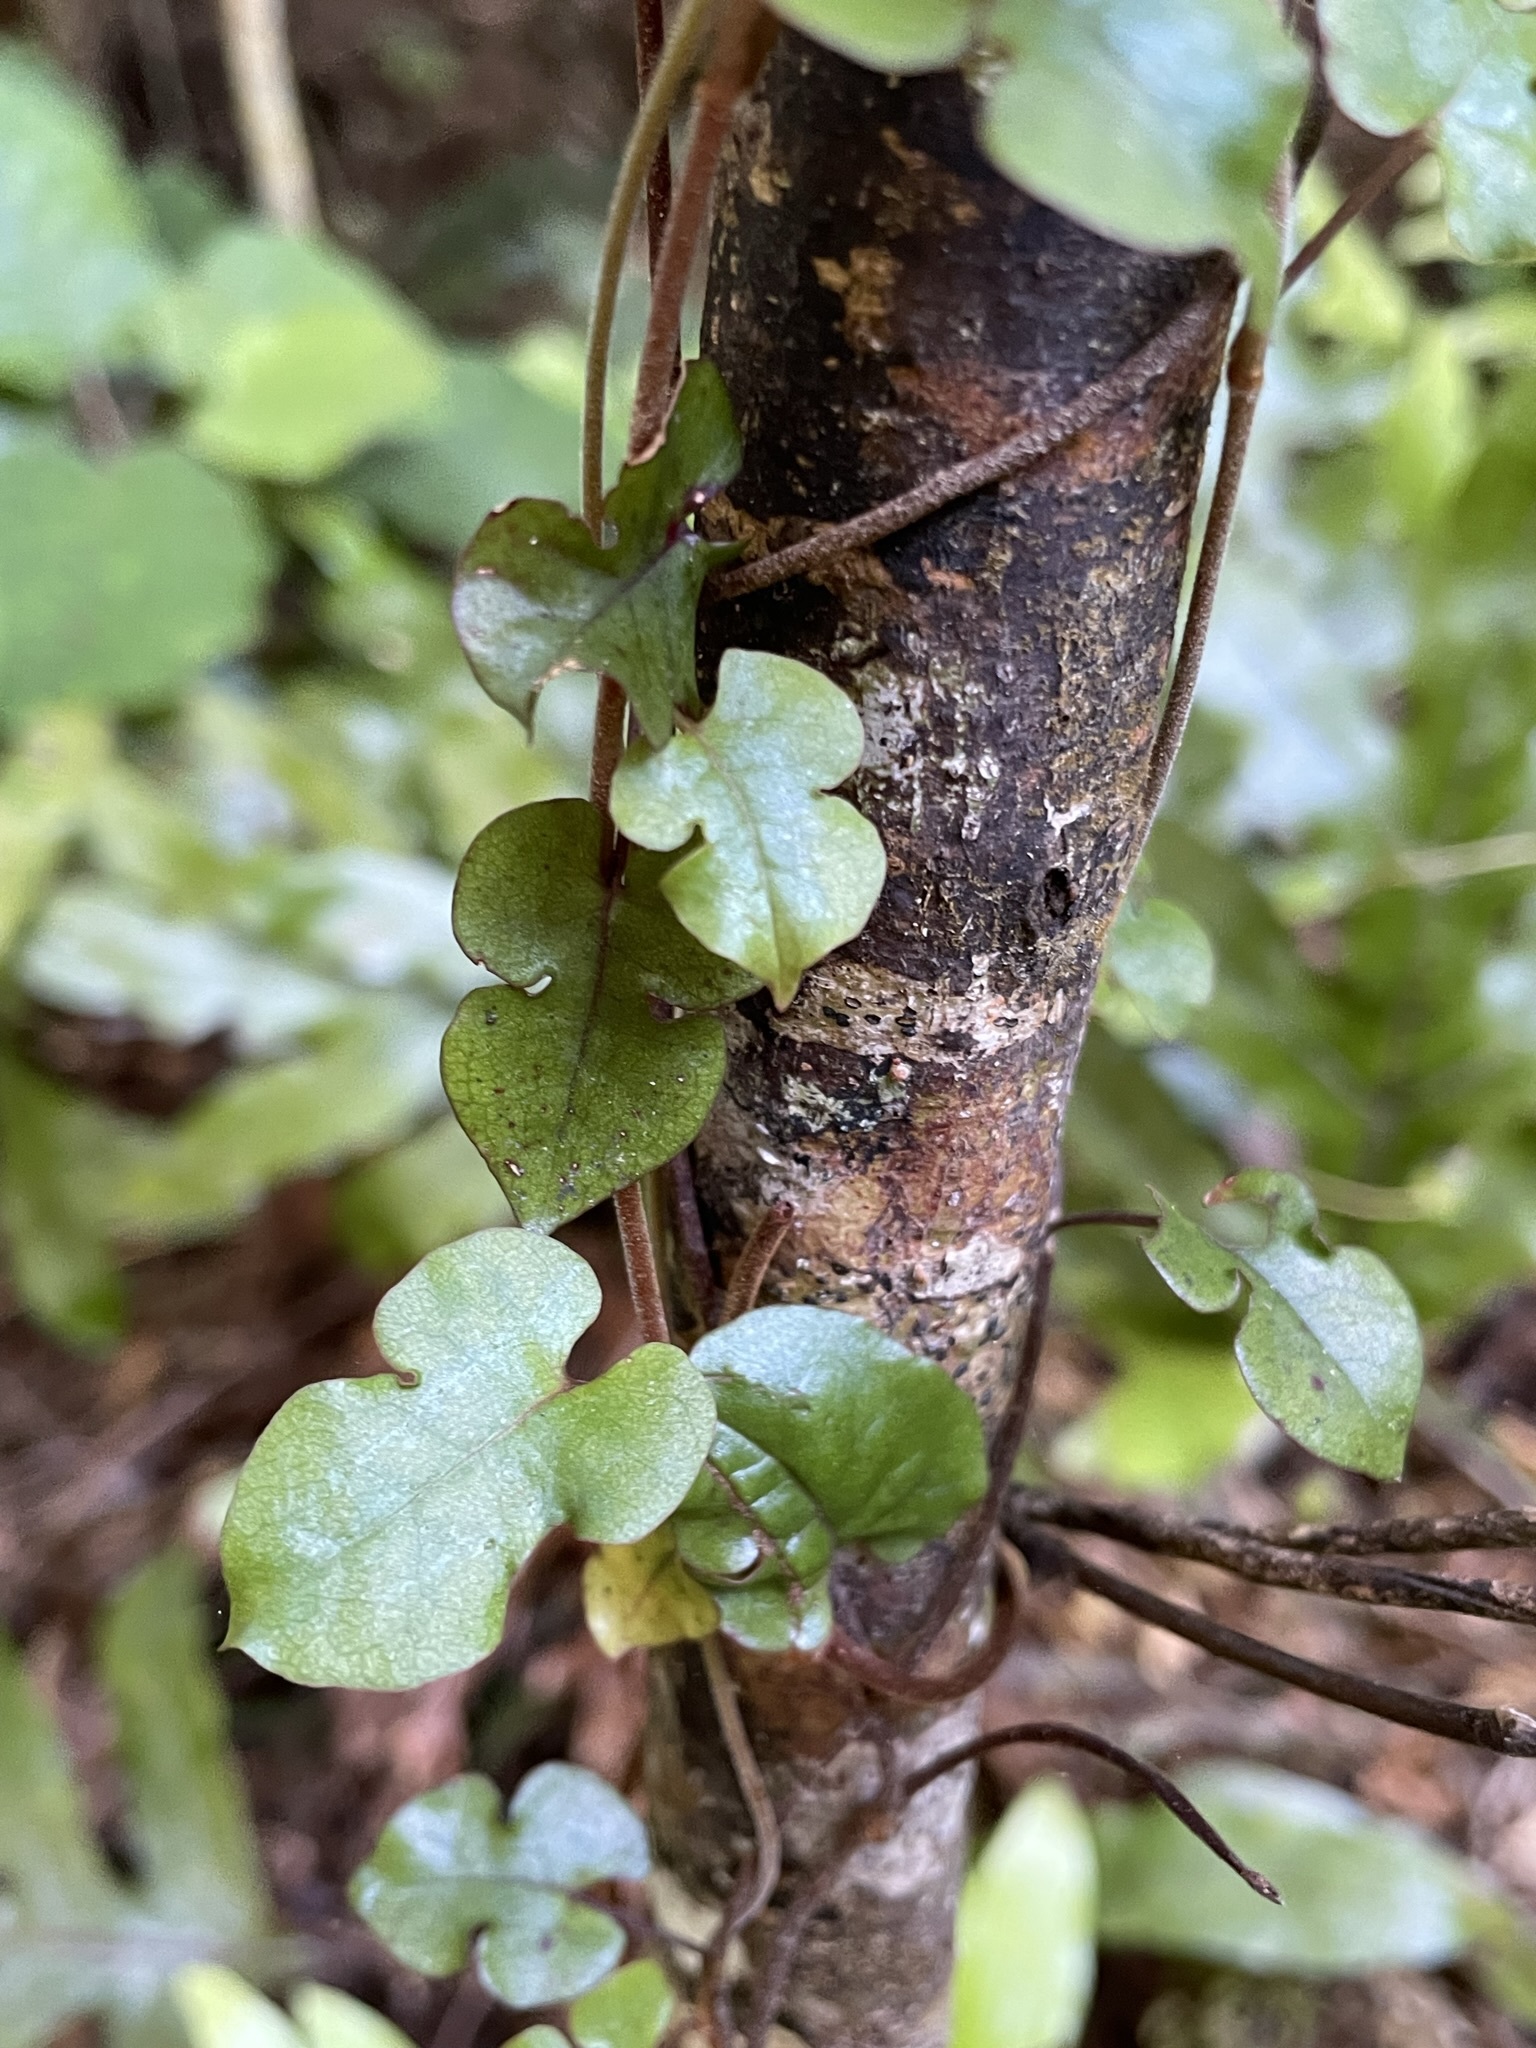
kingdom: Plantae
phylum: Tracheophyta
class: Magnoliopsida
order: Caryophyllales
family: Polygonaceae
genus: Muehlenbeckia
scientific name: Muehlenbeckia australis
